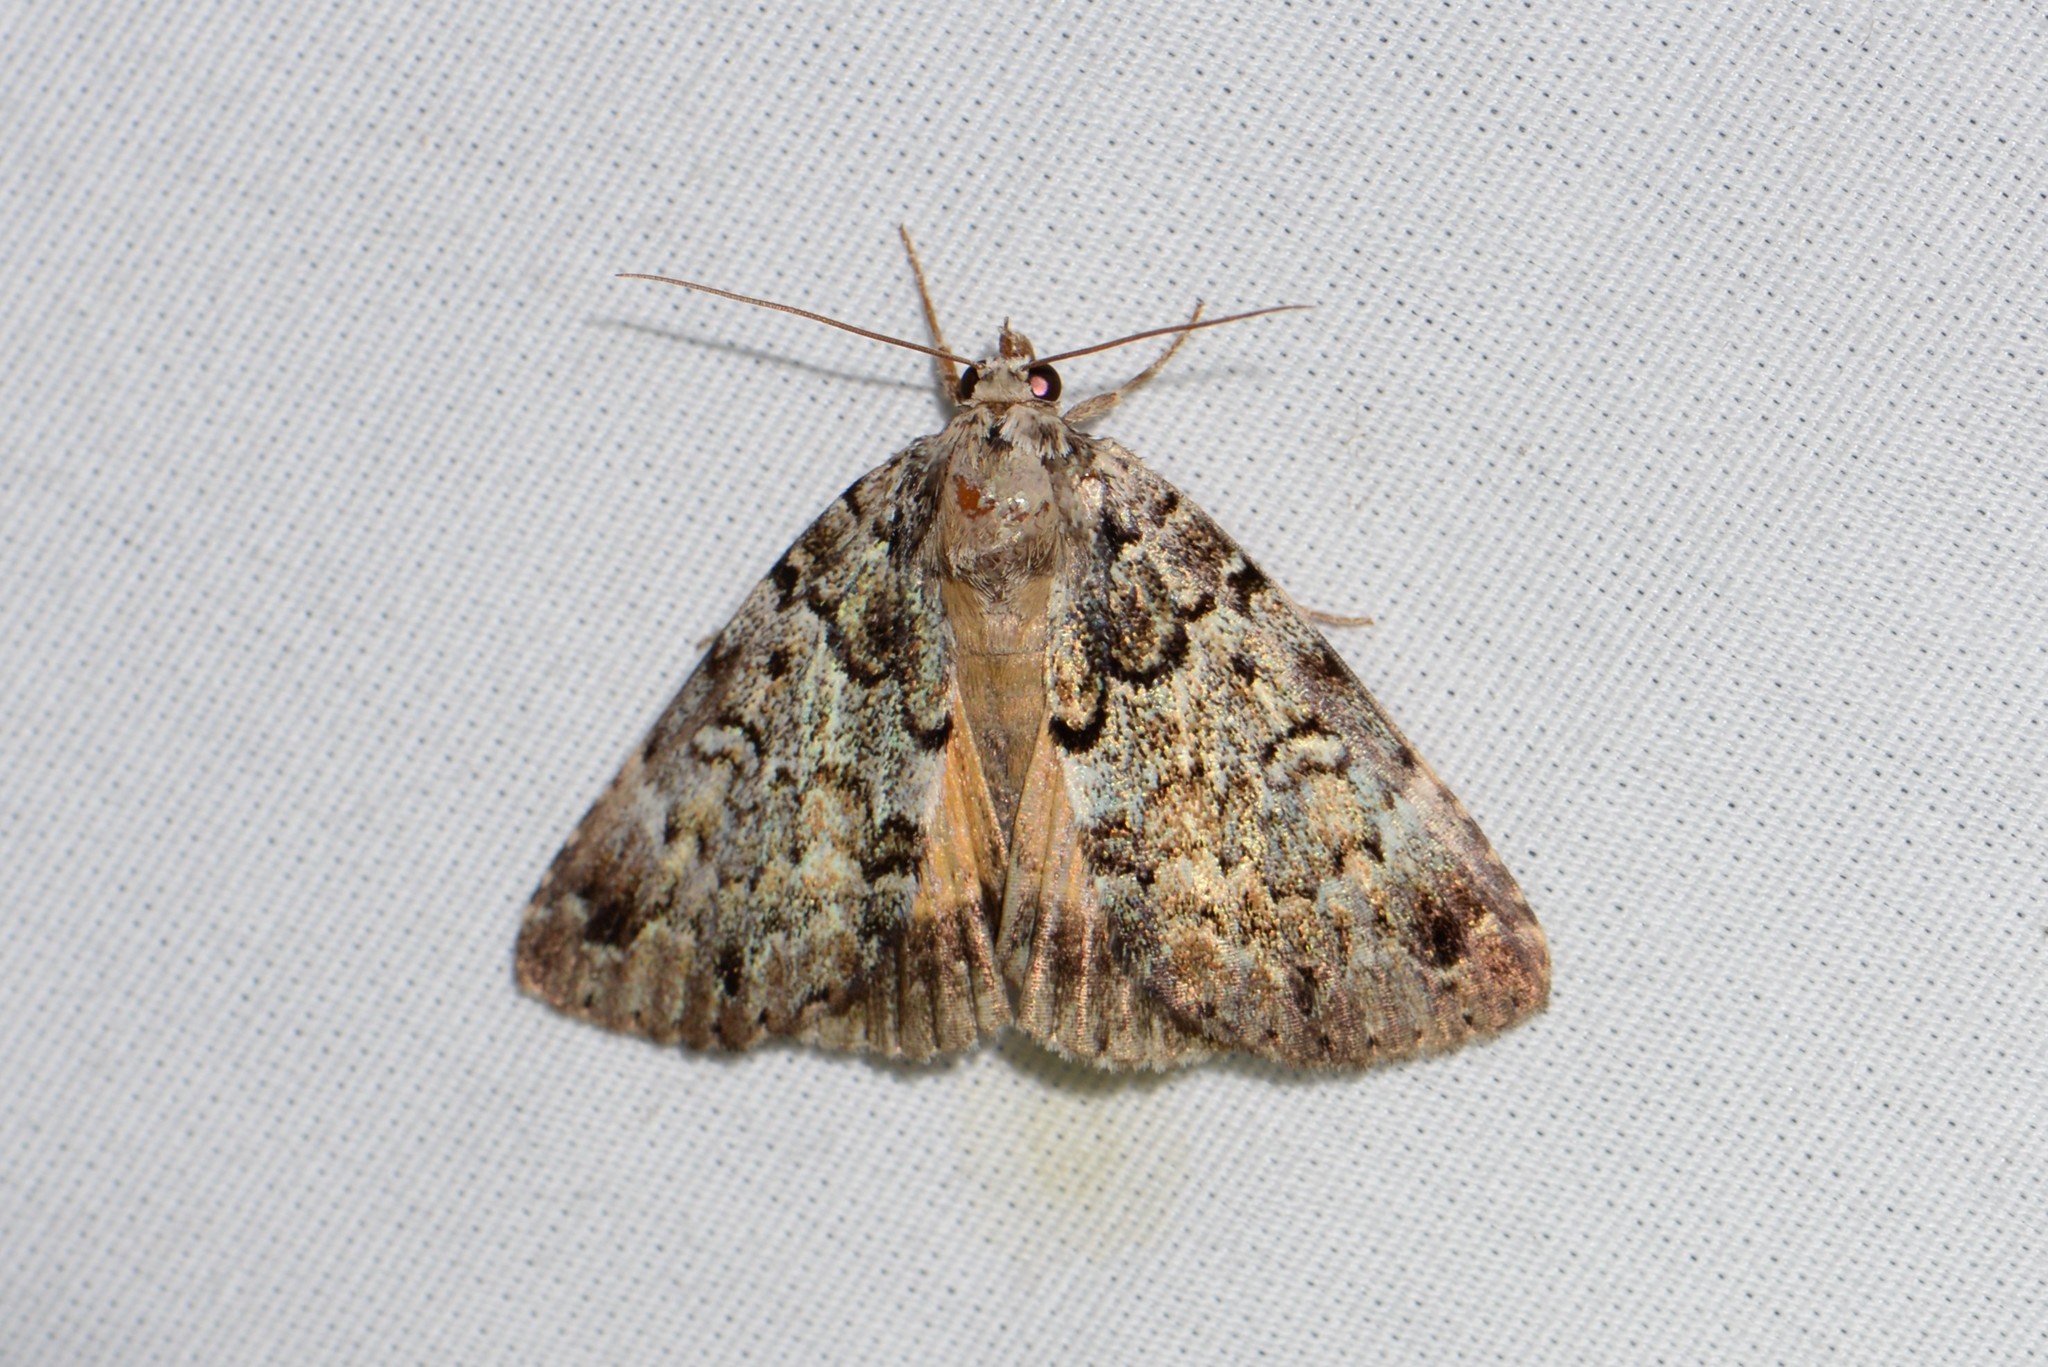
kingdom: Animalia
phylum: Arthropoda
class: Insecta
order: Lepidoptera
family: Erebidae
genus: Allotria
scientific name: Allotria elonympha
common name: False underwing
